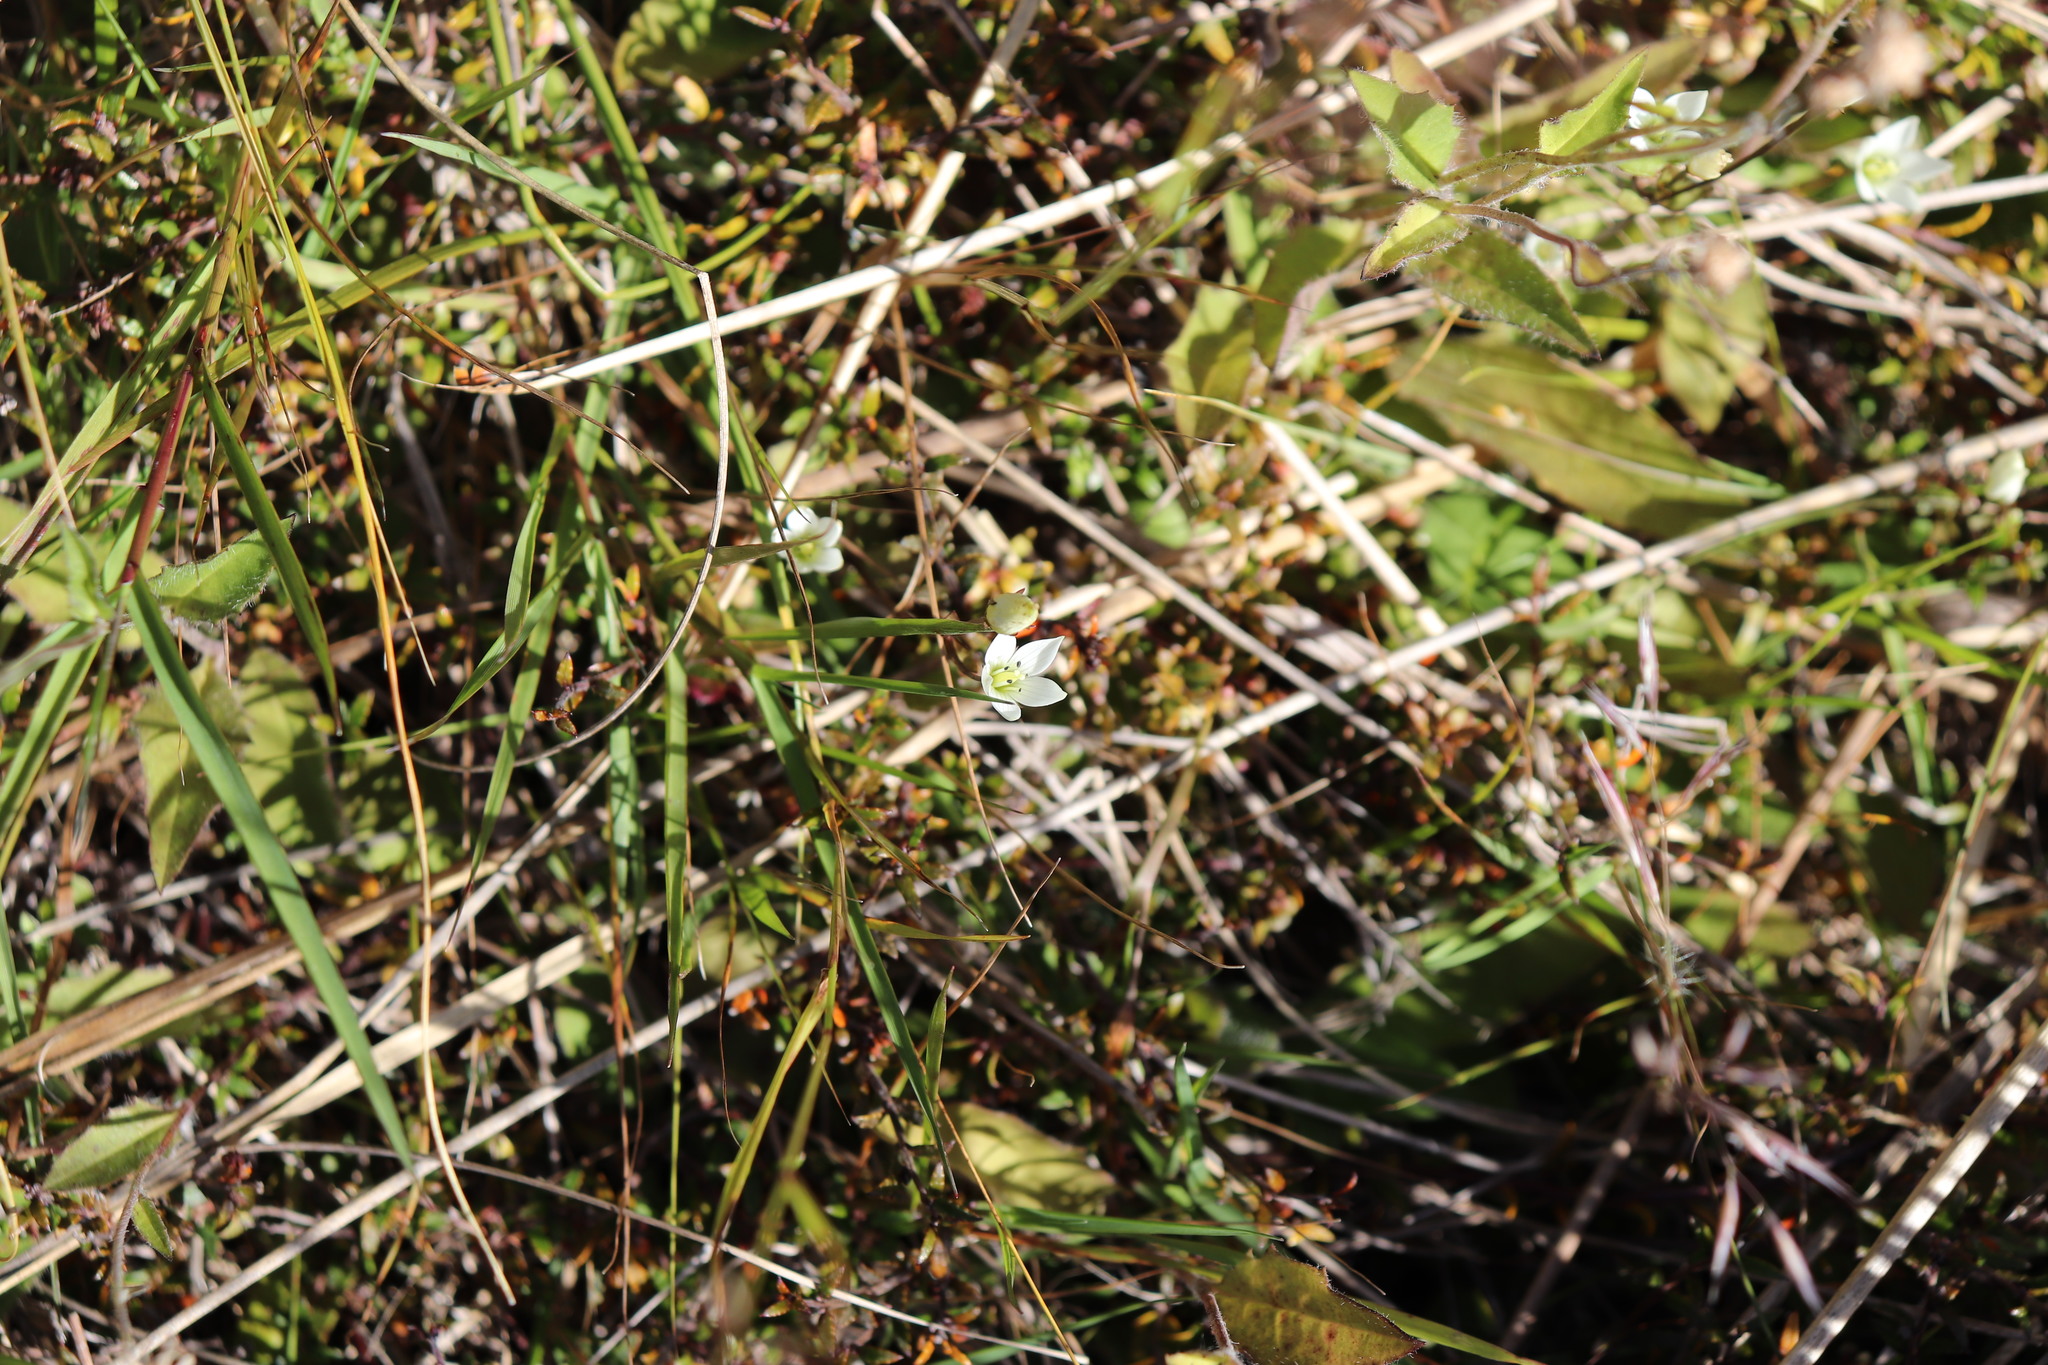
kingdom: Plantae
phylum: Tracheophyta
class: Magnoliopsida
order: Gentianales
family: Gentianaceae
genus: Gentianella
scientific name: Gentianella grisebachii
